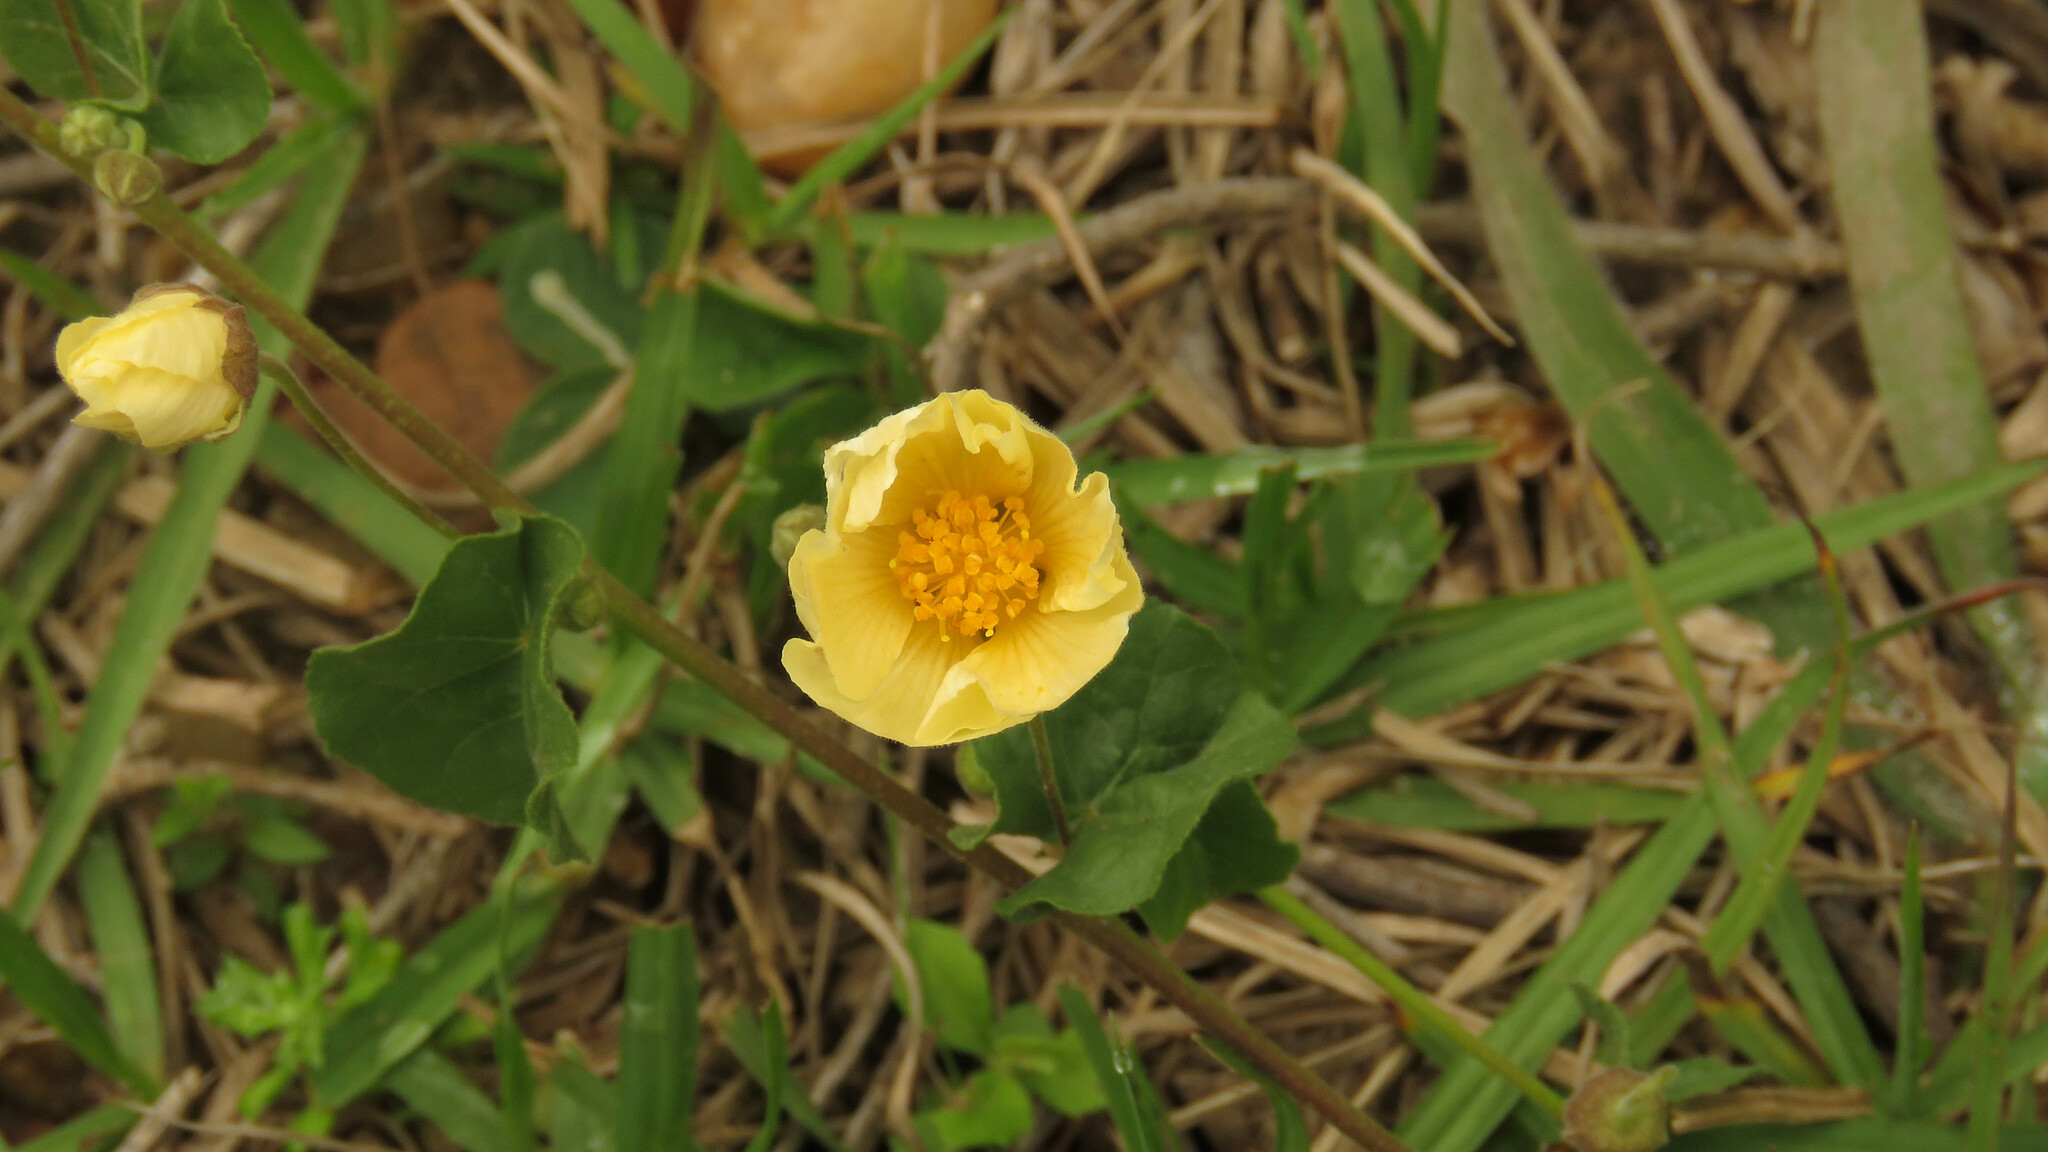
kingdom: Plantae
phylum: Tracheophyta
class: Magnoliopsida
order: Malvales
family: Malvaceae
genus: Wissadula
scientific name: Wissadula glechomifolia
